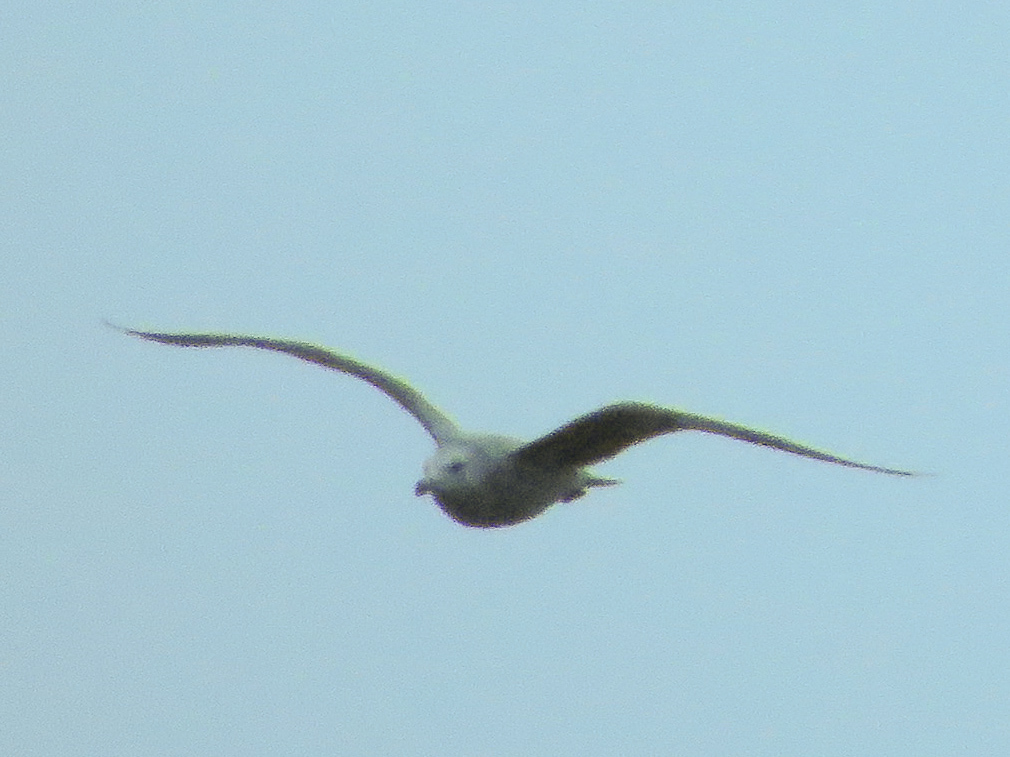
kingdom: Animalia
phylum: Chordata
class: Aves
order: Charadriiformes
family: Laridae
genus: Larus
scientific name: Larus argentatus
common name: Herring gull
